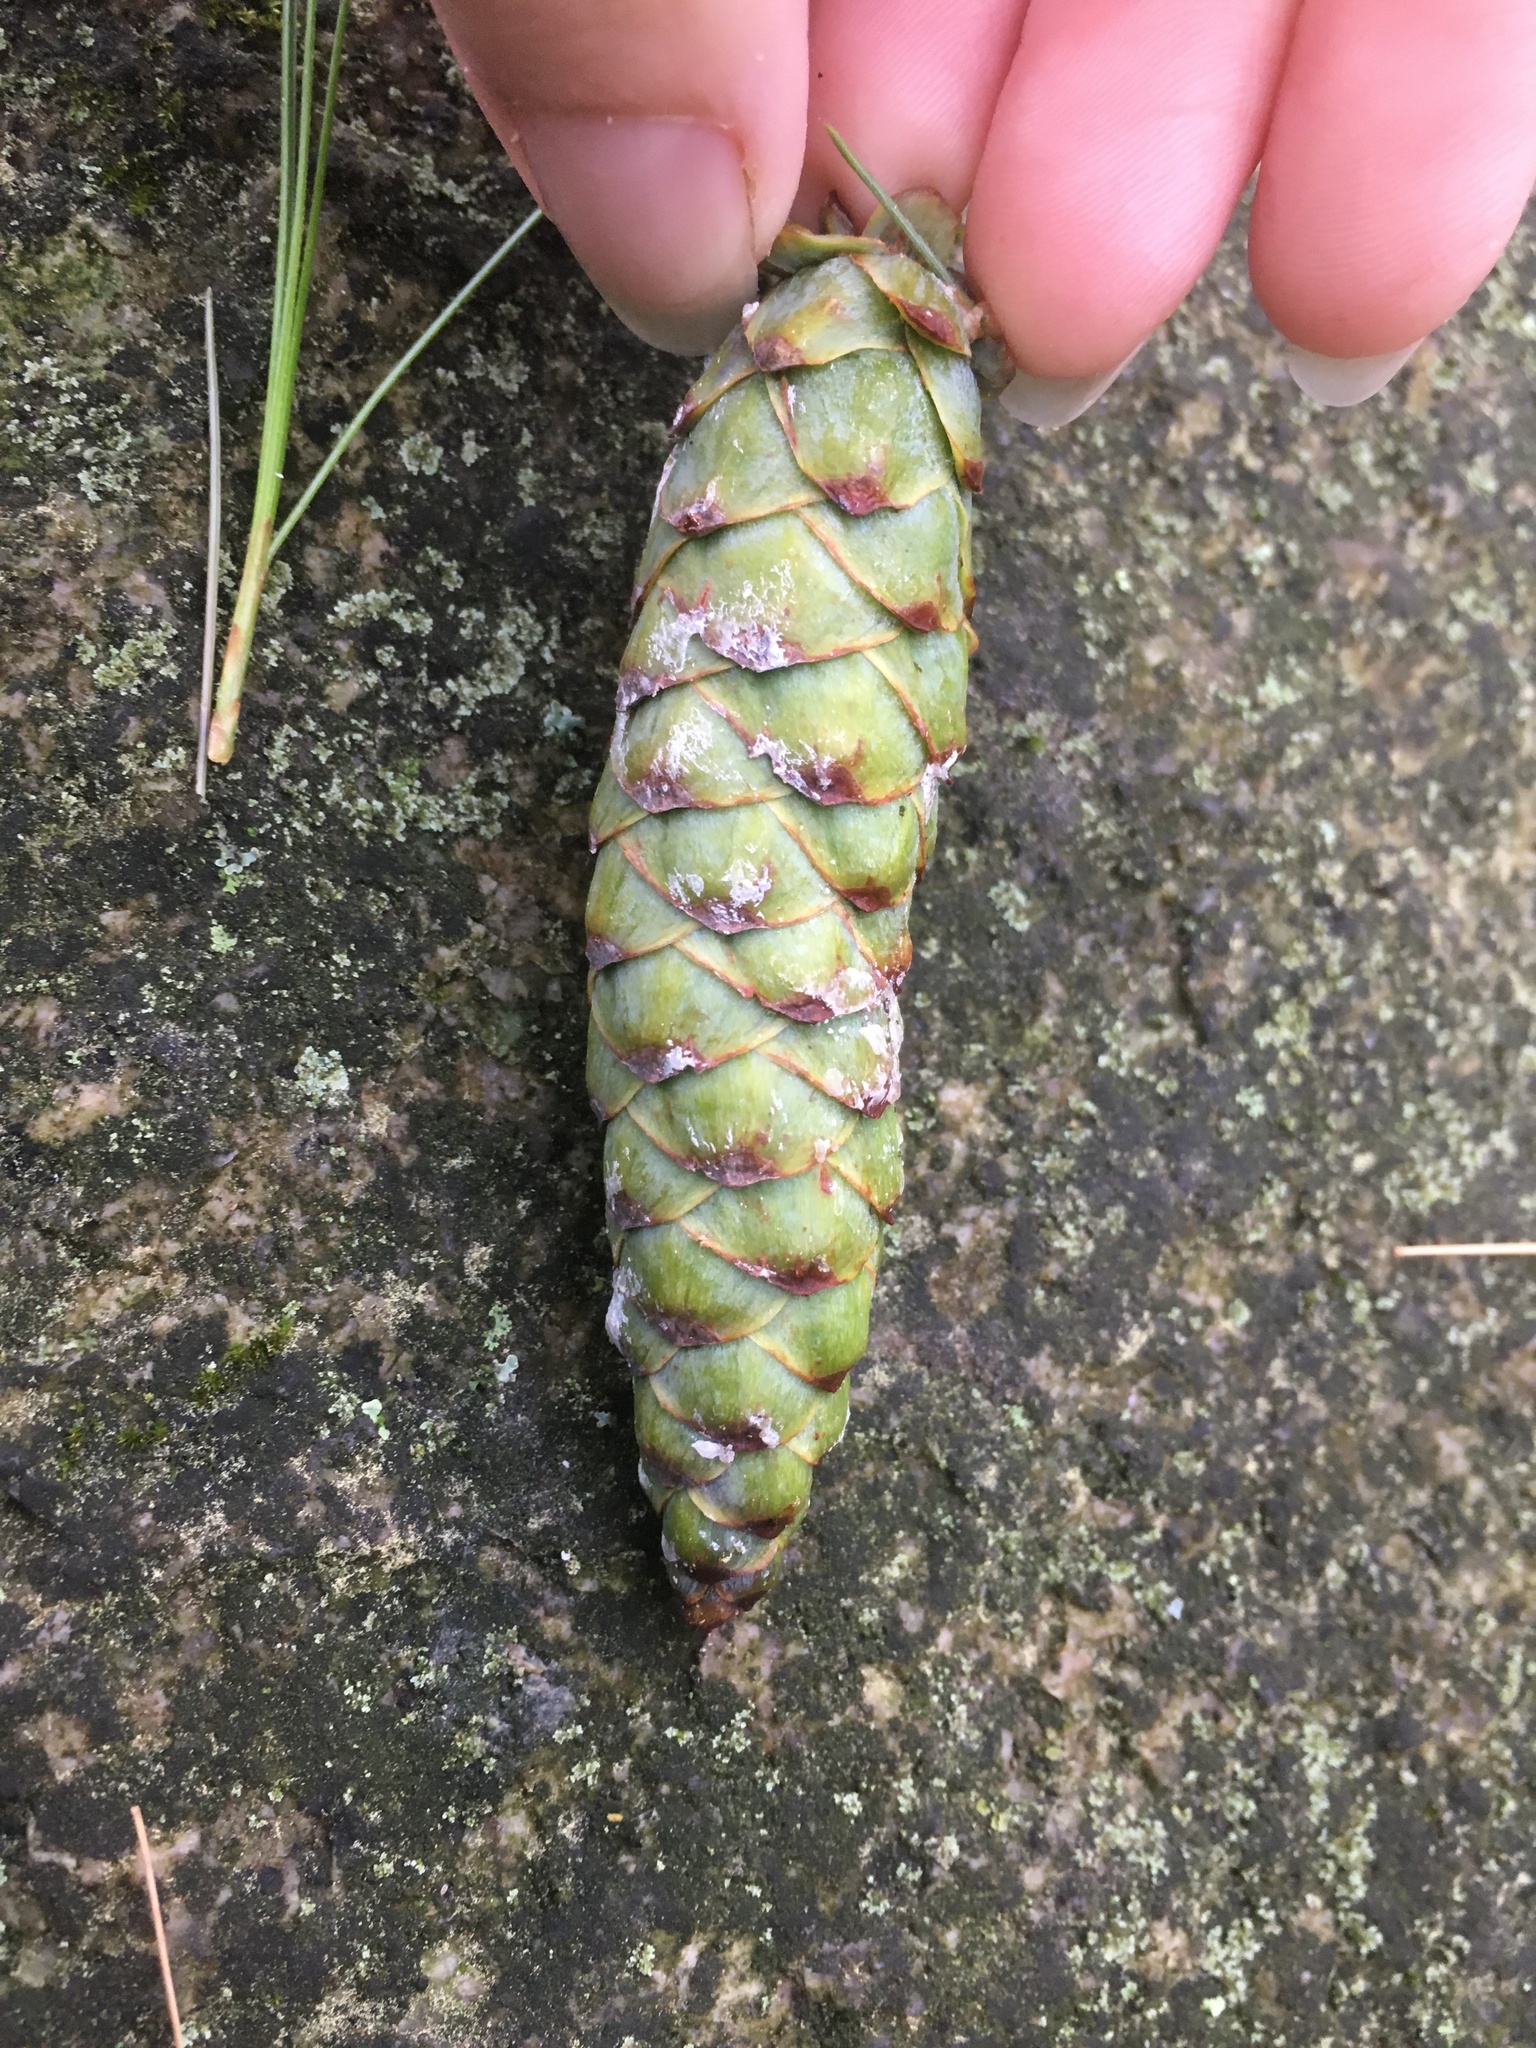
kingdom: Plantae
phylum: Tracheophyta
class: Pinopsida
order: Pinales
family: Pinaceae
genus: Pinus
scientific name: Pinus strobus
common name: Weymouth pine
